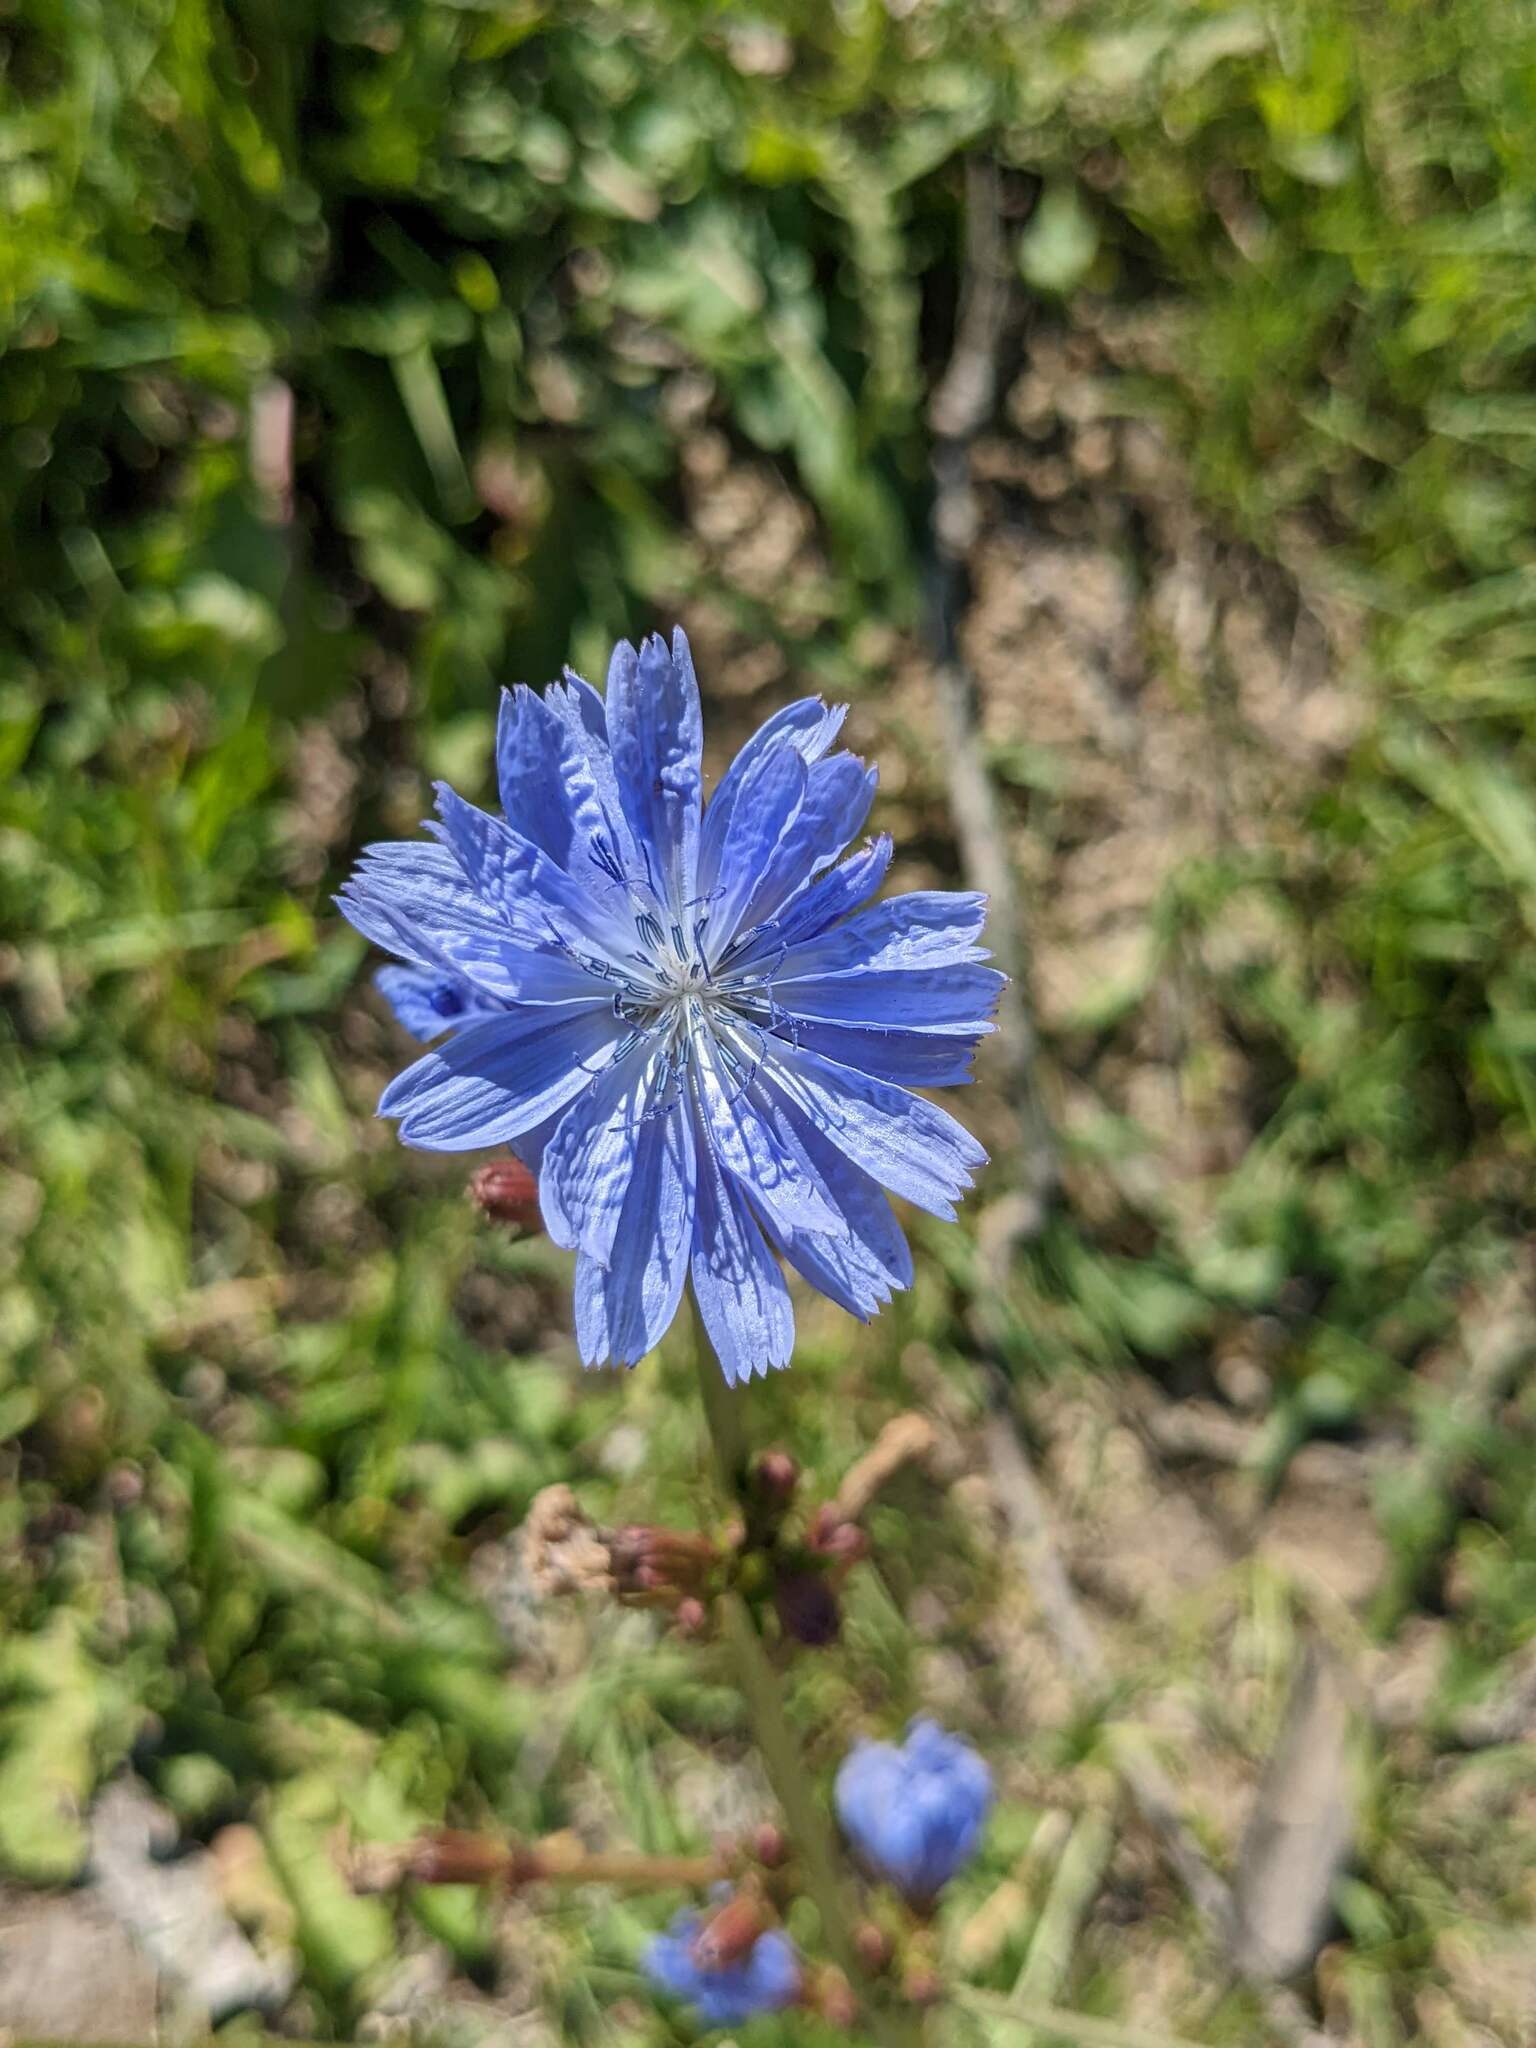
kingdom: Plantae
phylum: Tracheophyta
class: Magnoliopsida
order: Asterales
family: Asteraceae
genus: Cichorium
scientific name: Cichorium intybus
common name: Chicory
